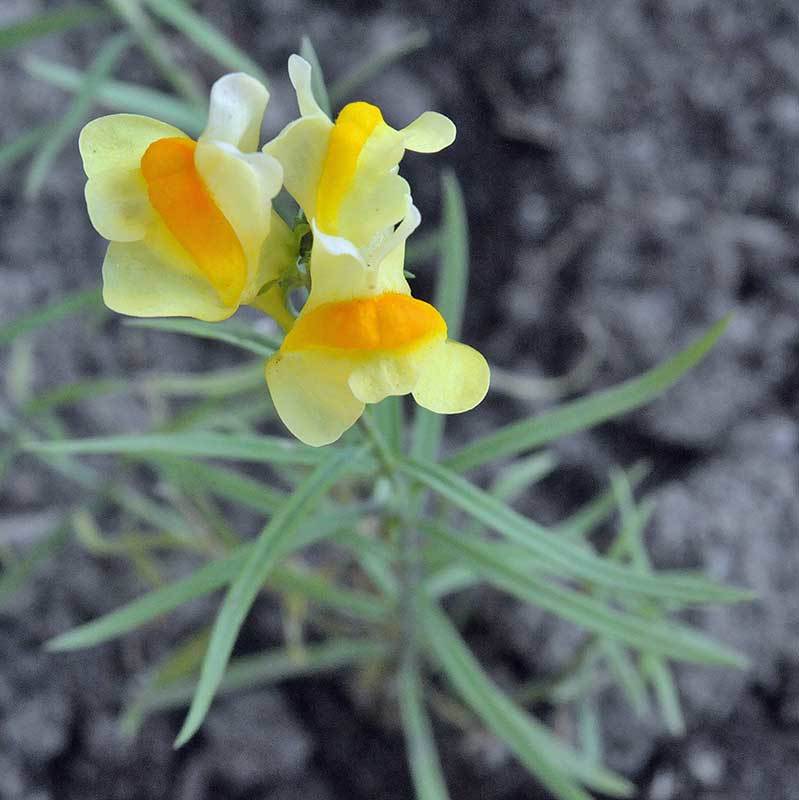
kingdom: Plantae
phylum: Tracheophyta
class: Magnoliopsida
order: Lamiales
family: Plantaginaceae
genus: Linaria
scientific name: Linaria vulgaris
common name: Butter and eggs
